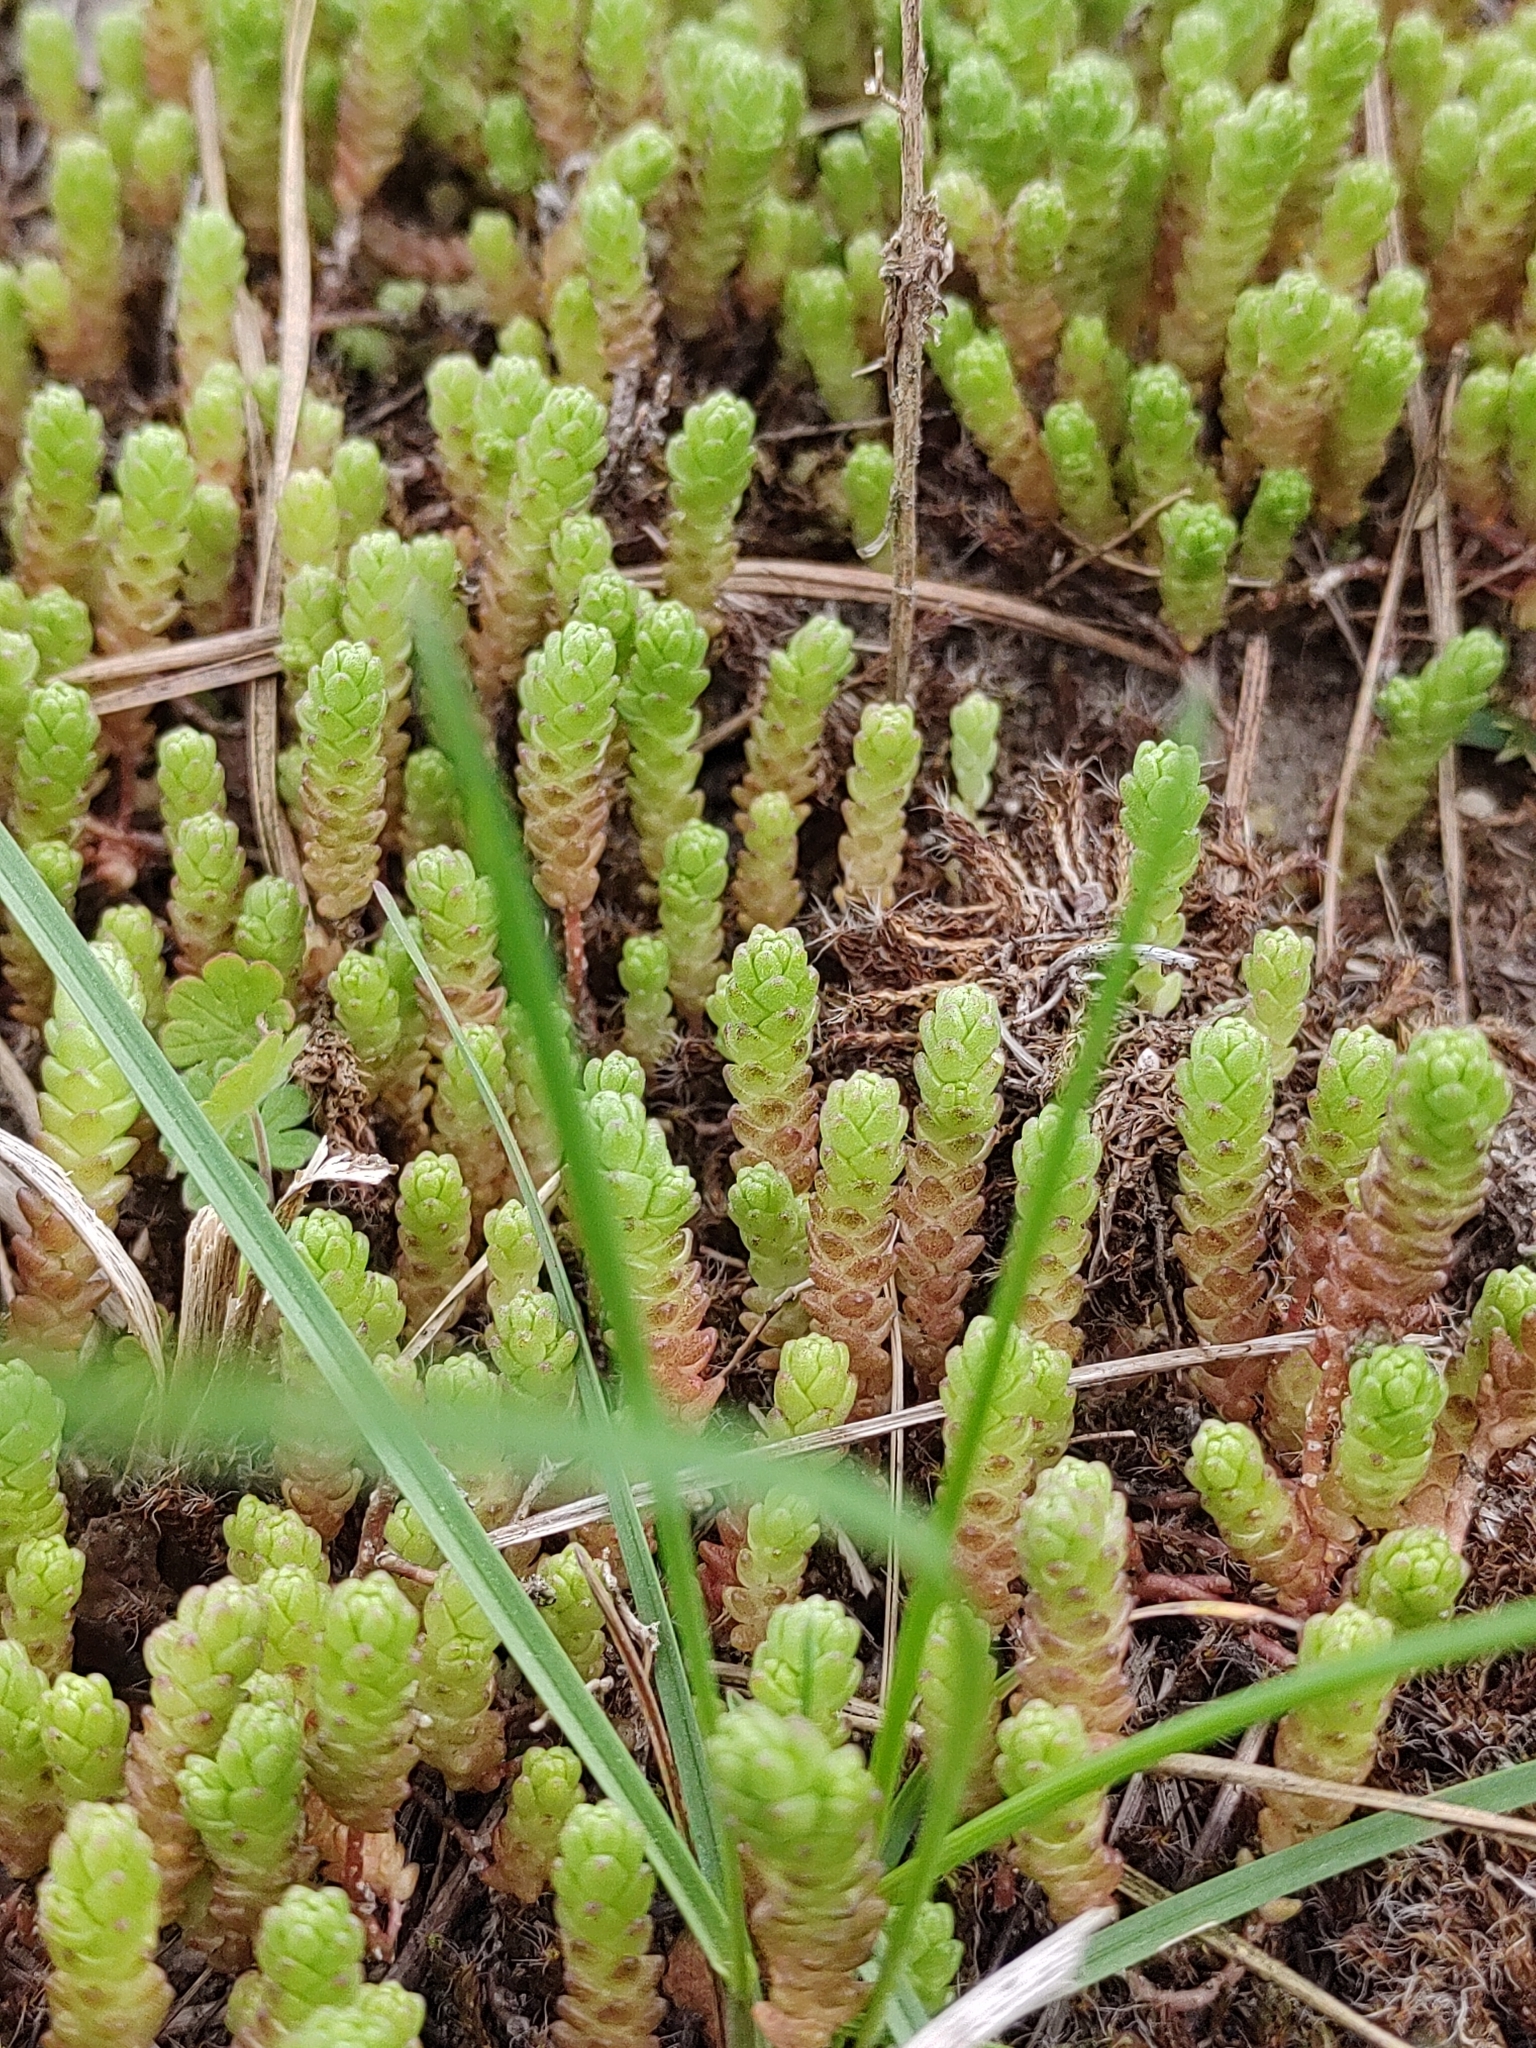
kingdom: Plantae
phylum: Tracheophyta
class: Magnoliopsida
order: Saxifragales
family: Crassulaceae
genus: Sedum
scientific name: Sedum acre
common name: Biting stonecrop
